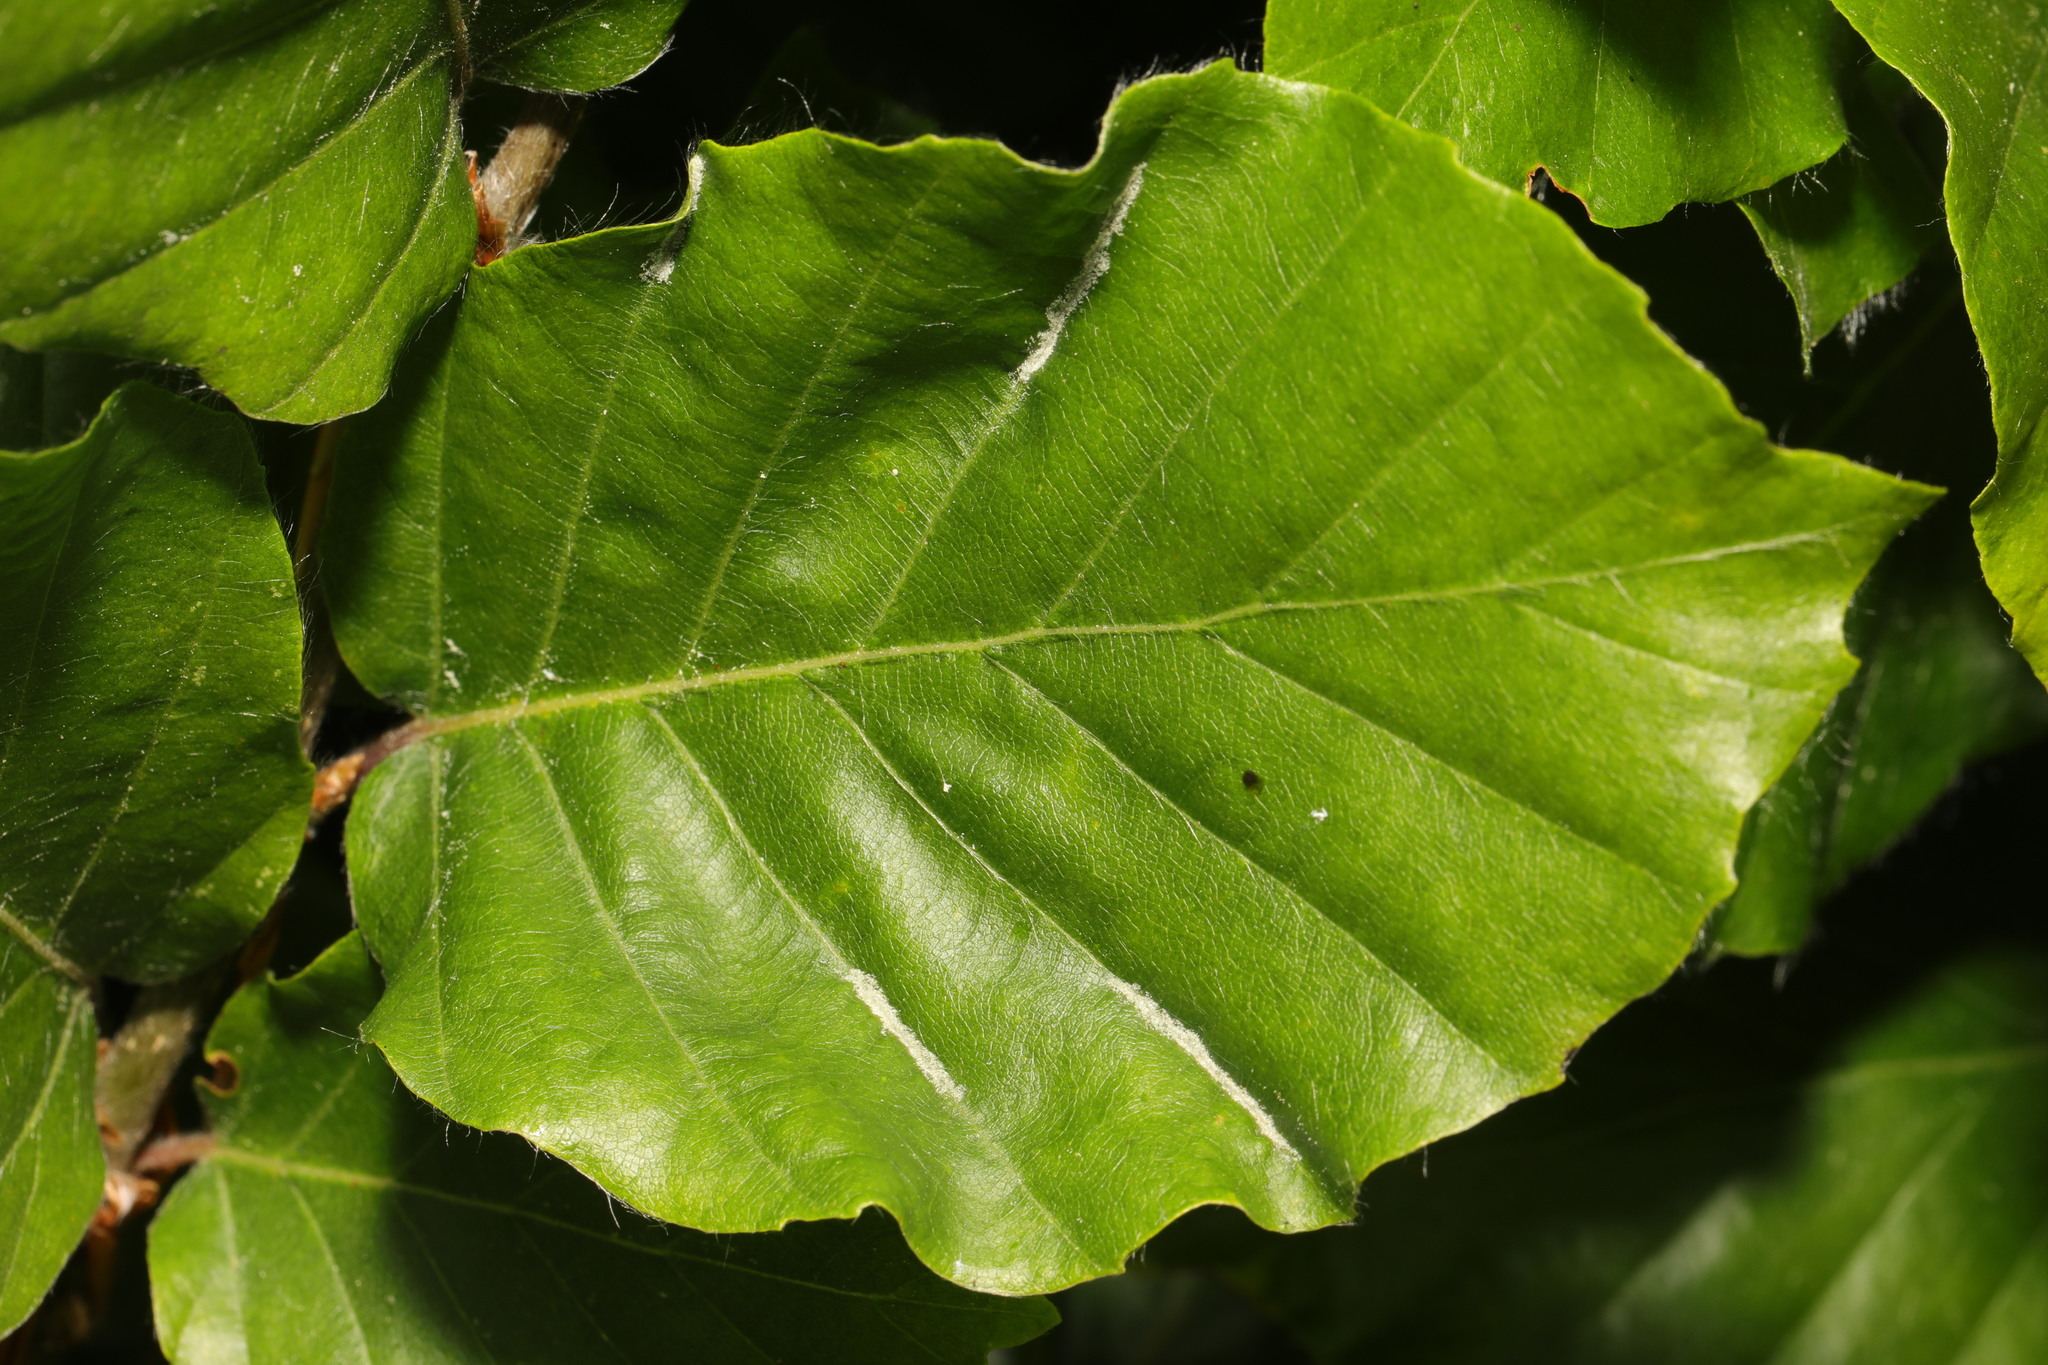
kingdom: Plantae
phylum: Tracheophyta
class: Magnoliopsida
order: Fagales
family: Fagaceae
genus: Fagus
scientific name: Fagus sylvatica
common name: Beech
